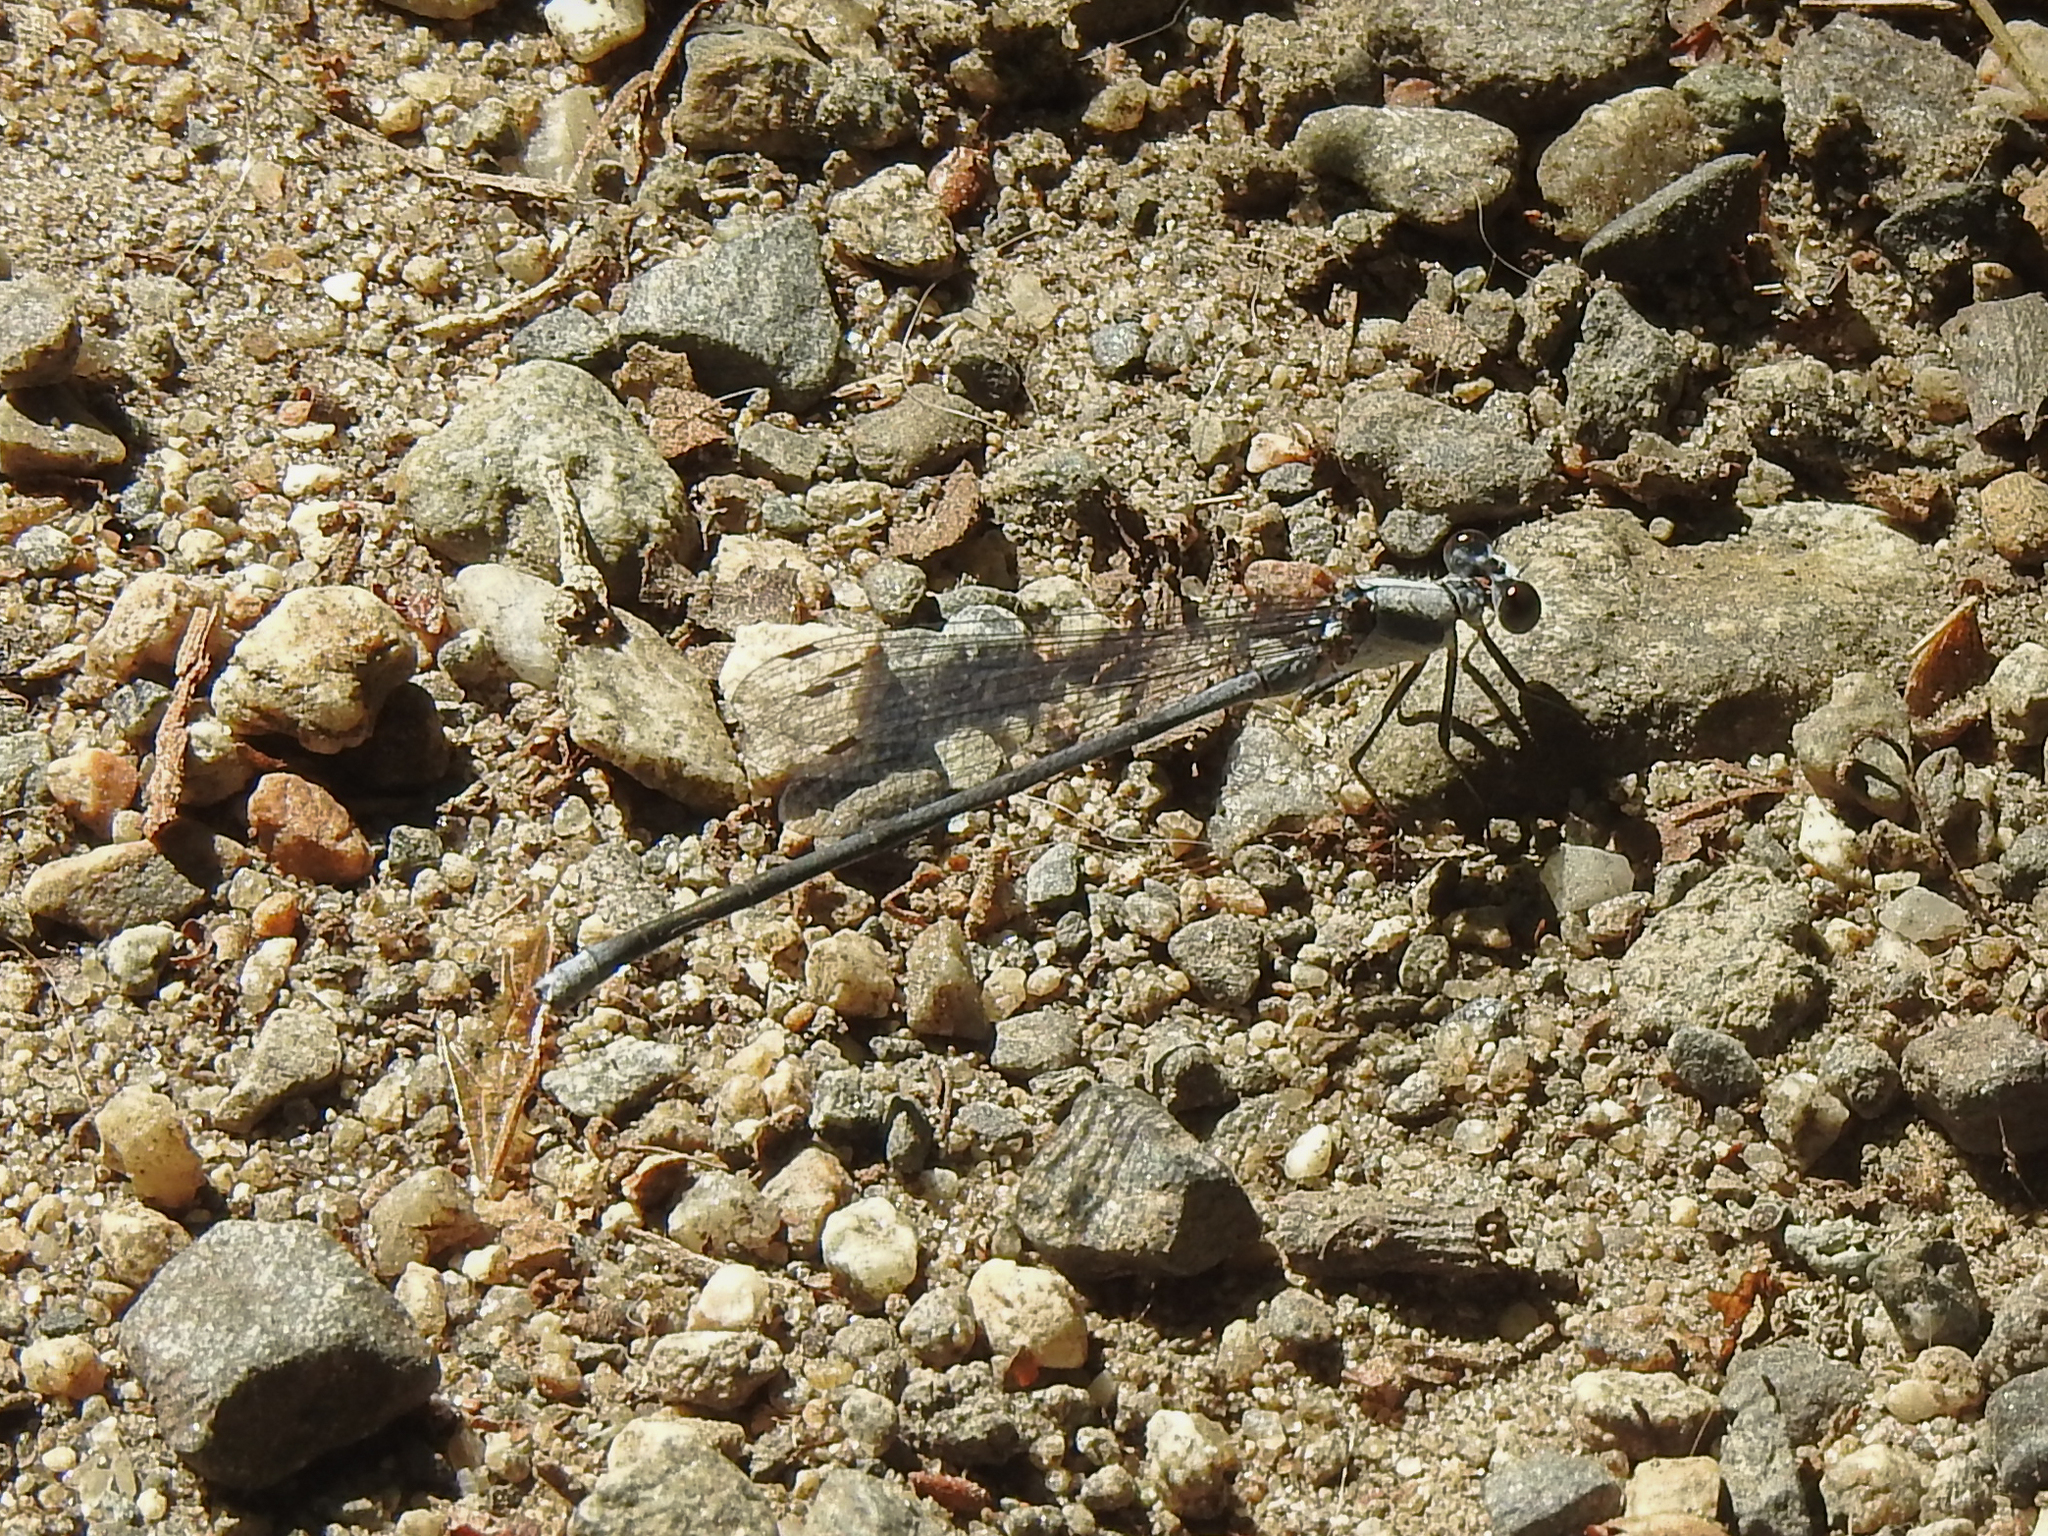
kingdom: Animalia
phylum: Arthropoda
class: Insecta
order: Odonata
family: Coenagrionidae
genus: Argia
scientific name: Argia moesta
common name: Powdered dancer
